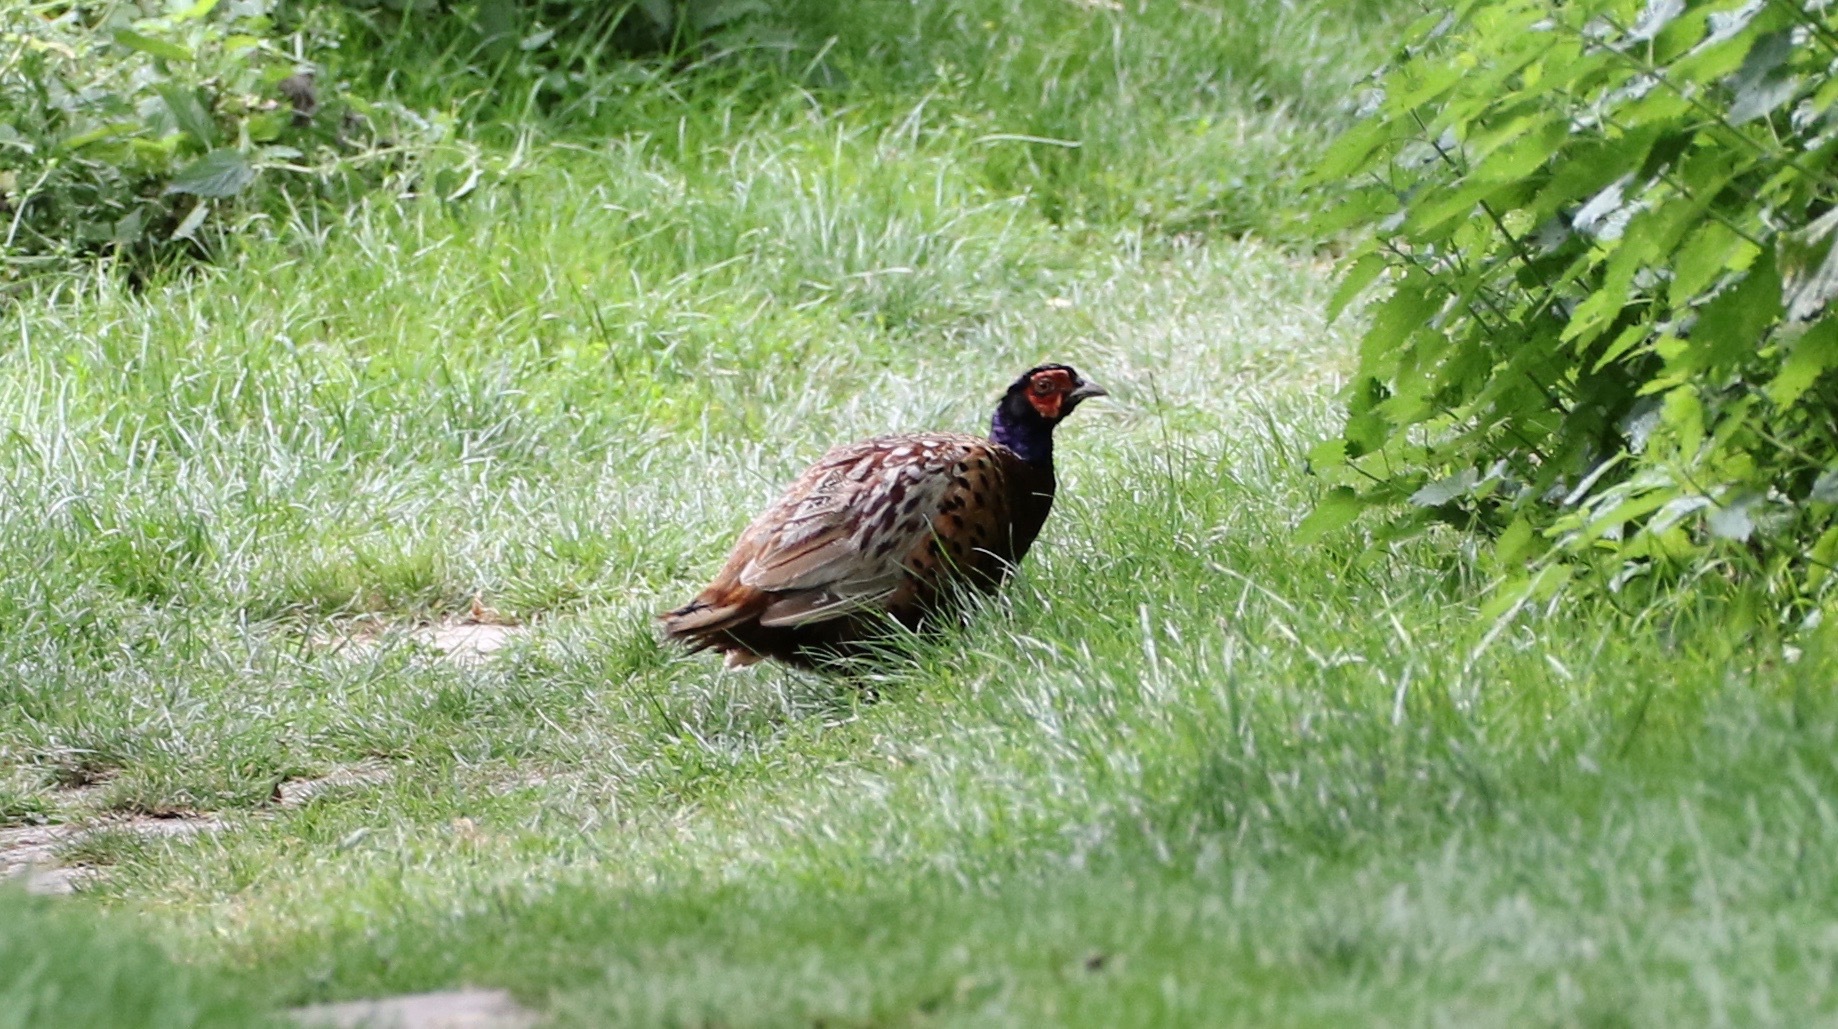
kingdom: Animalia
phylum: Chordata
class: Aves
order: Galliformes
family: Phasianidae
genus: Phasianus
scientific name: Phasianus colchicus
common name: Common pheasant
